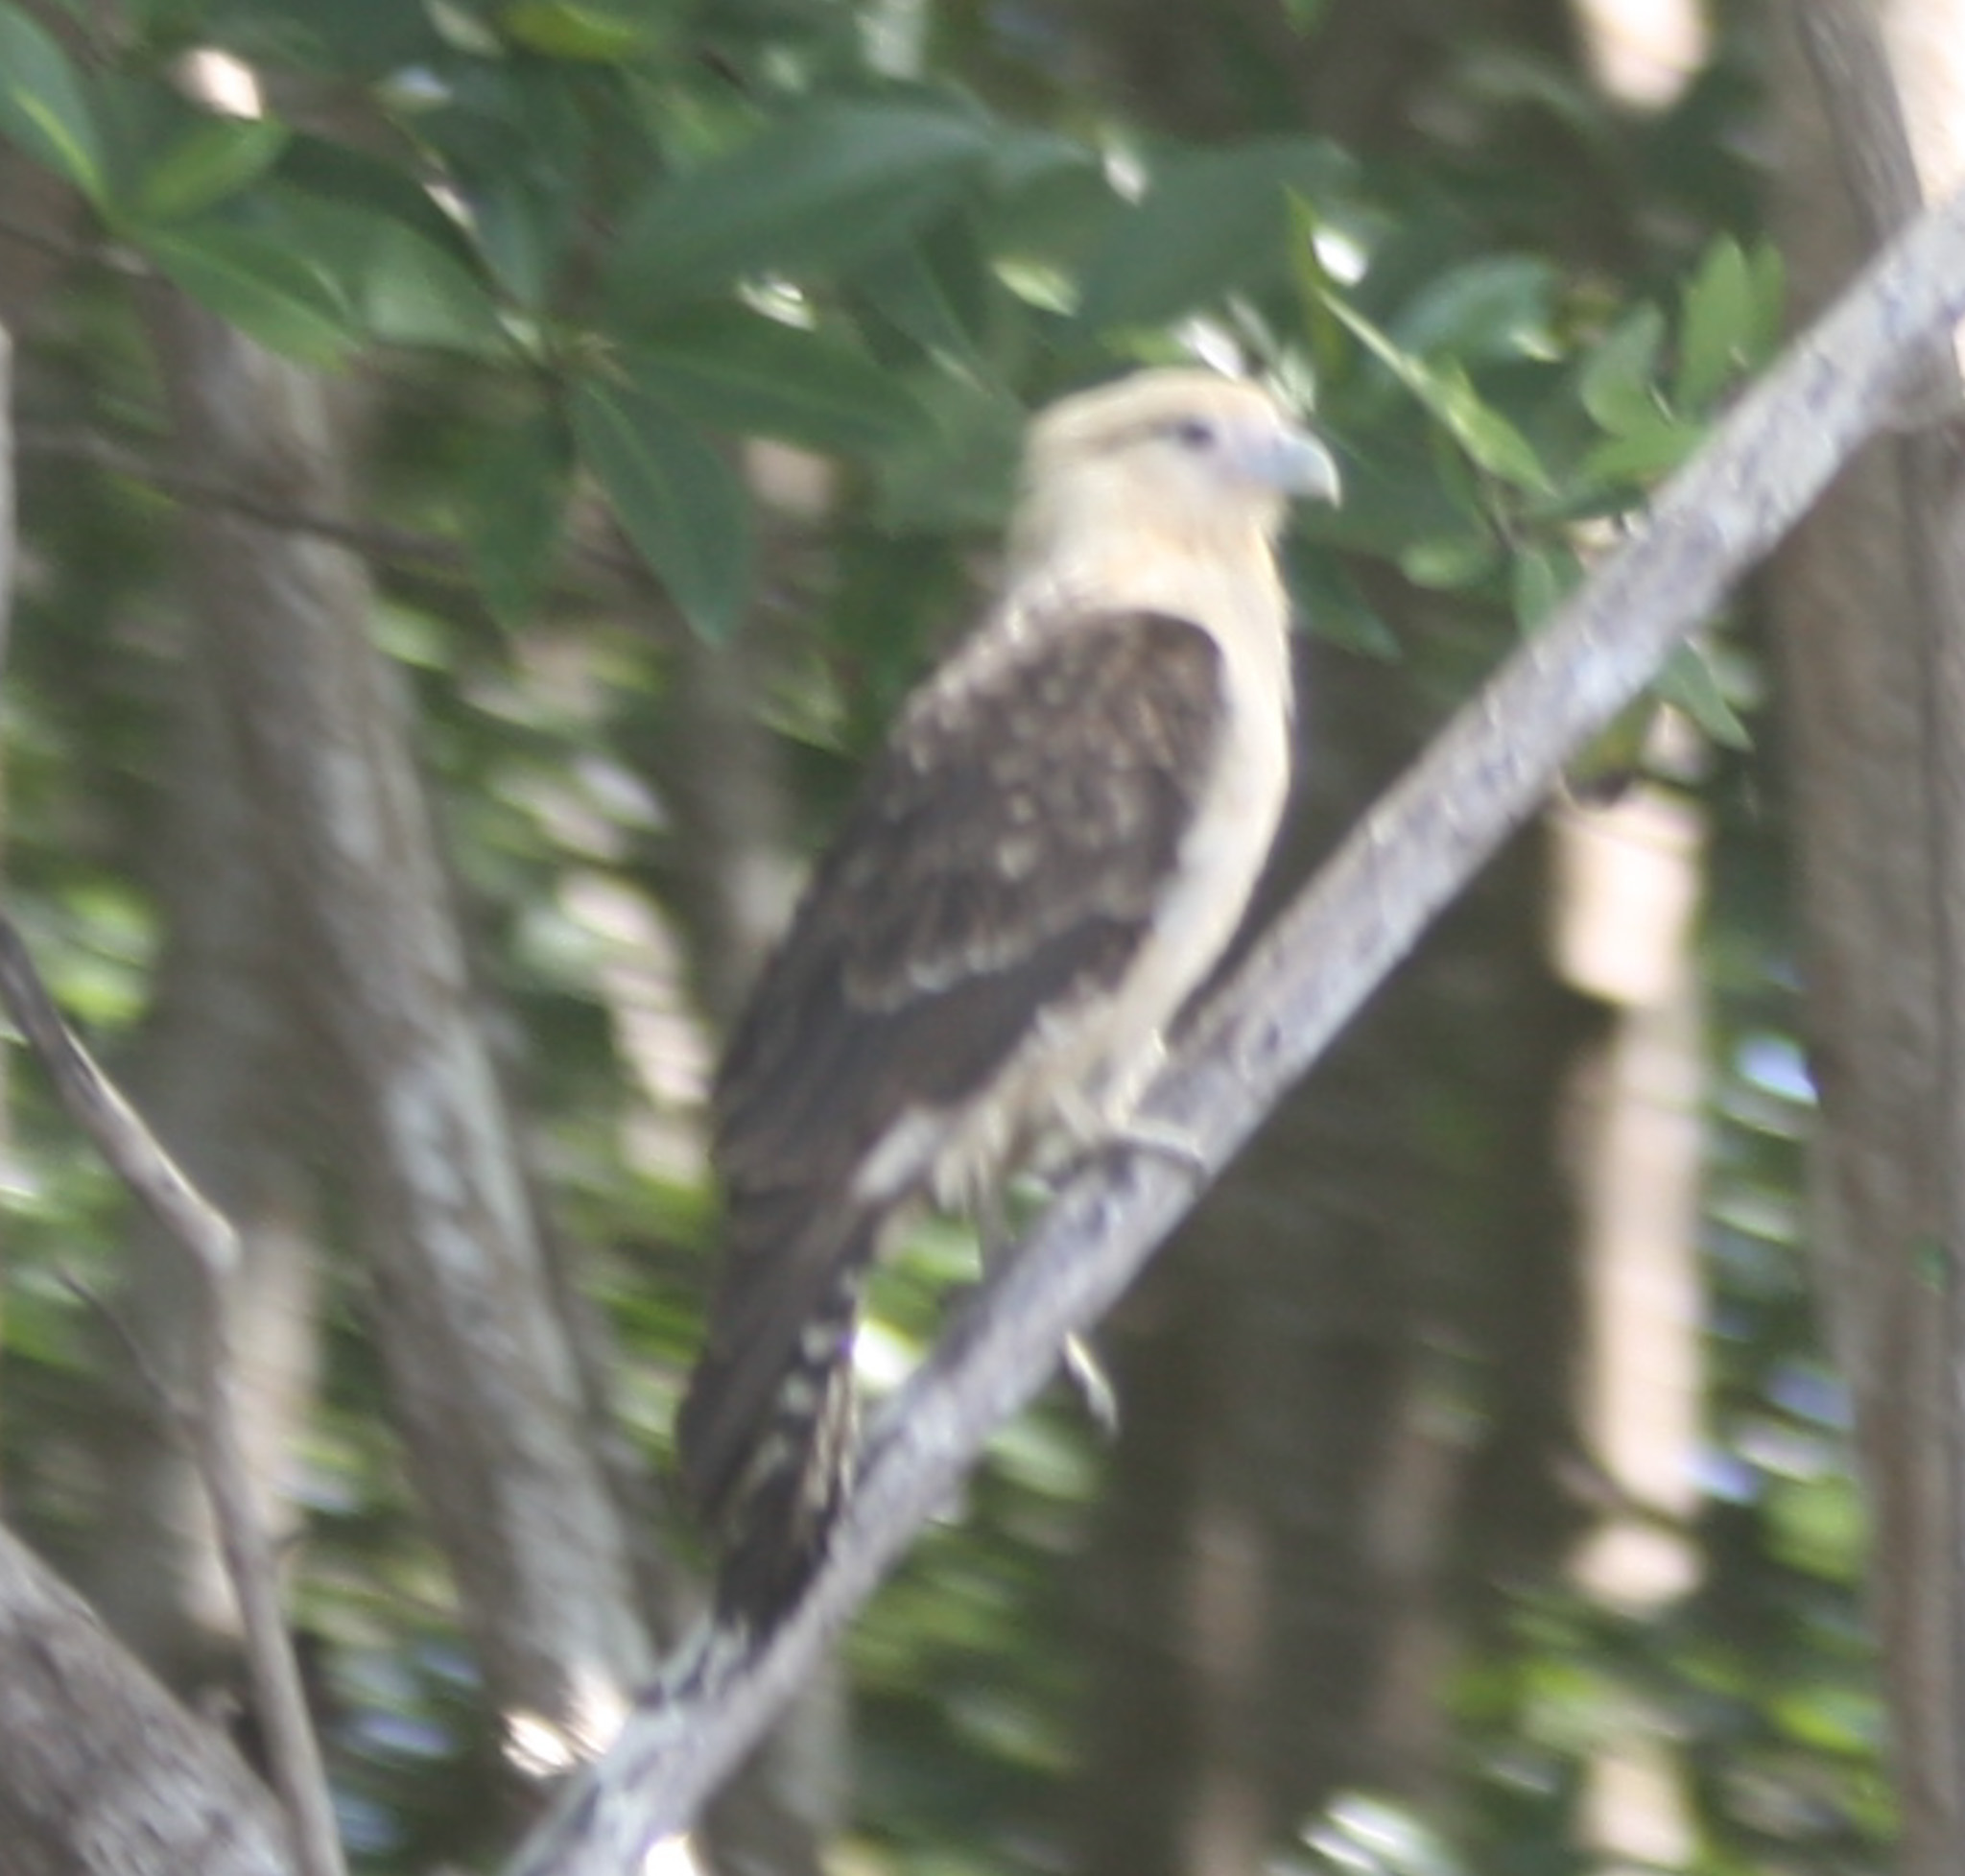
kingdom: Animalia
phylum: Chordata
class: Aves
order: Falconiformes
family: Falconidae
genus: Daptrius
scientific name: Daptrius
